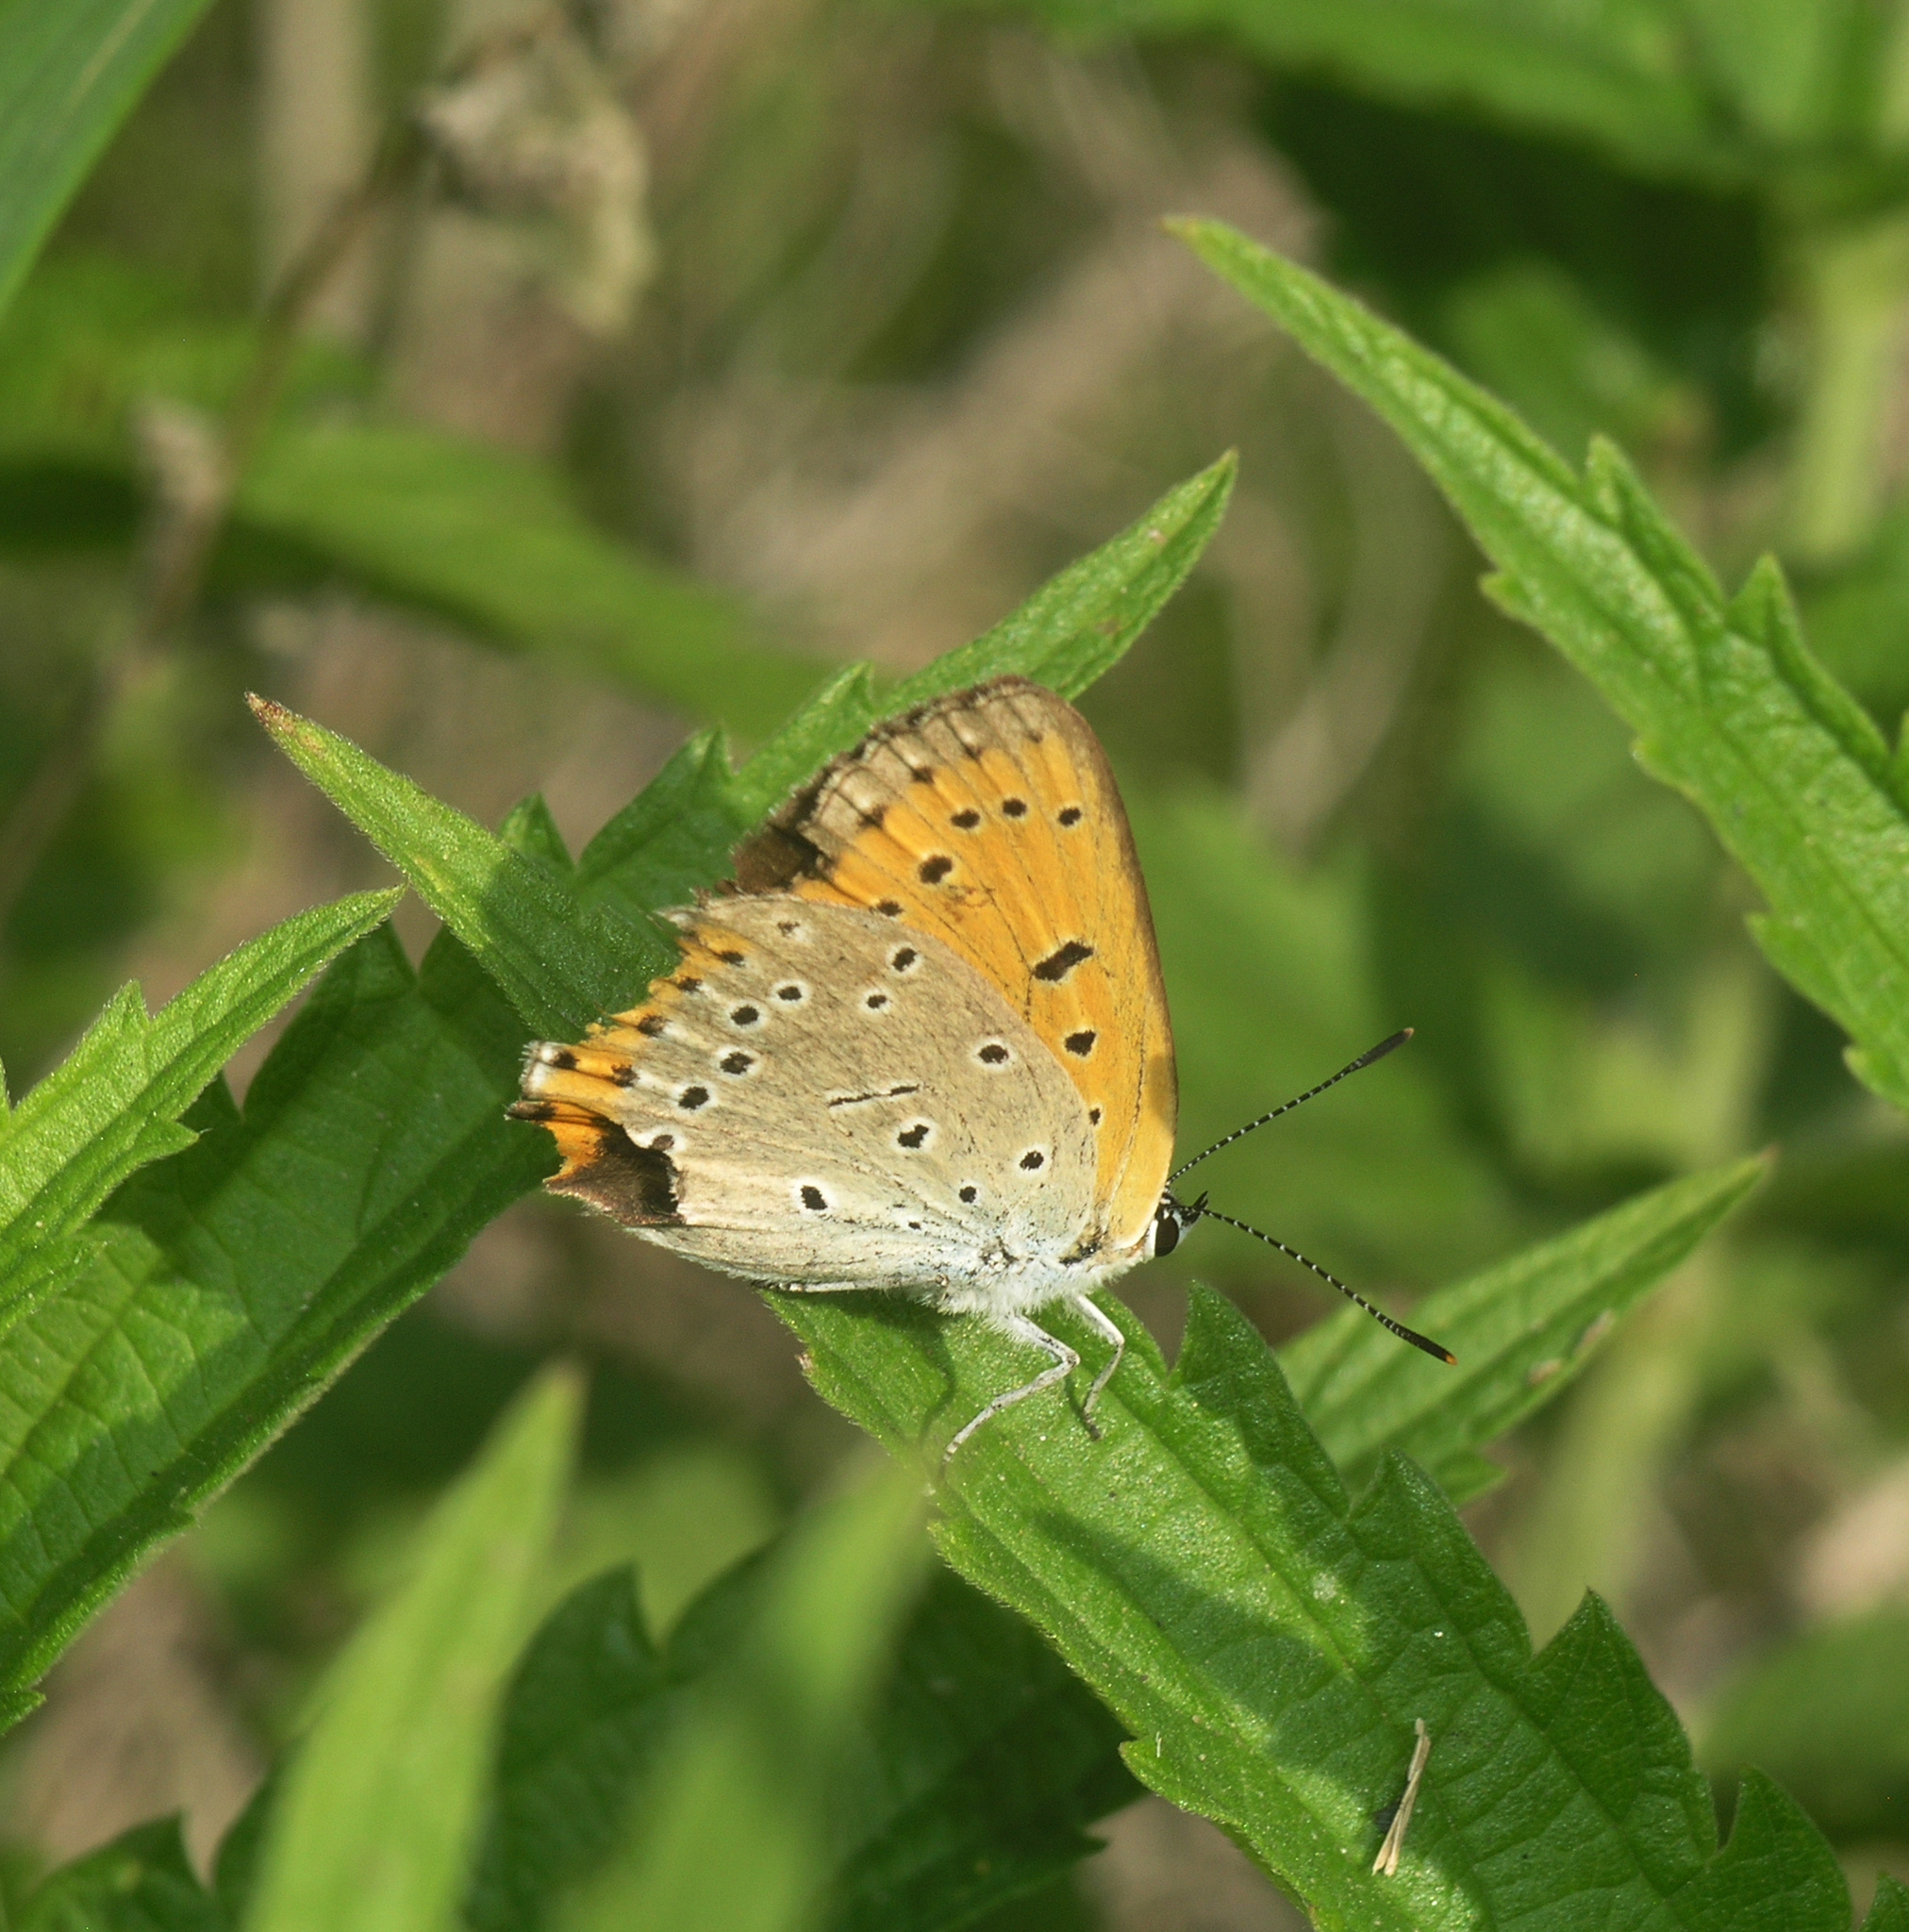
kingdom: Animalia
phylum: Arthropoda
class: Insecta
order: Lepidoptera
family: Lycaenidae
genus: Lycaena
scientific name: Lycaena dispar
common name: Large copper
